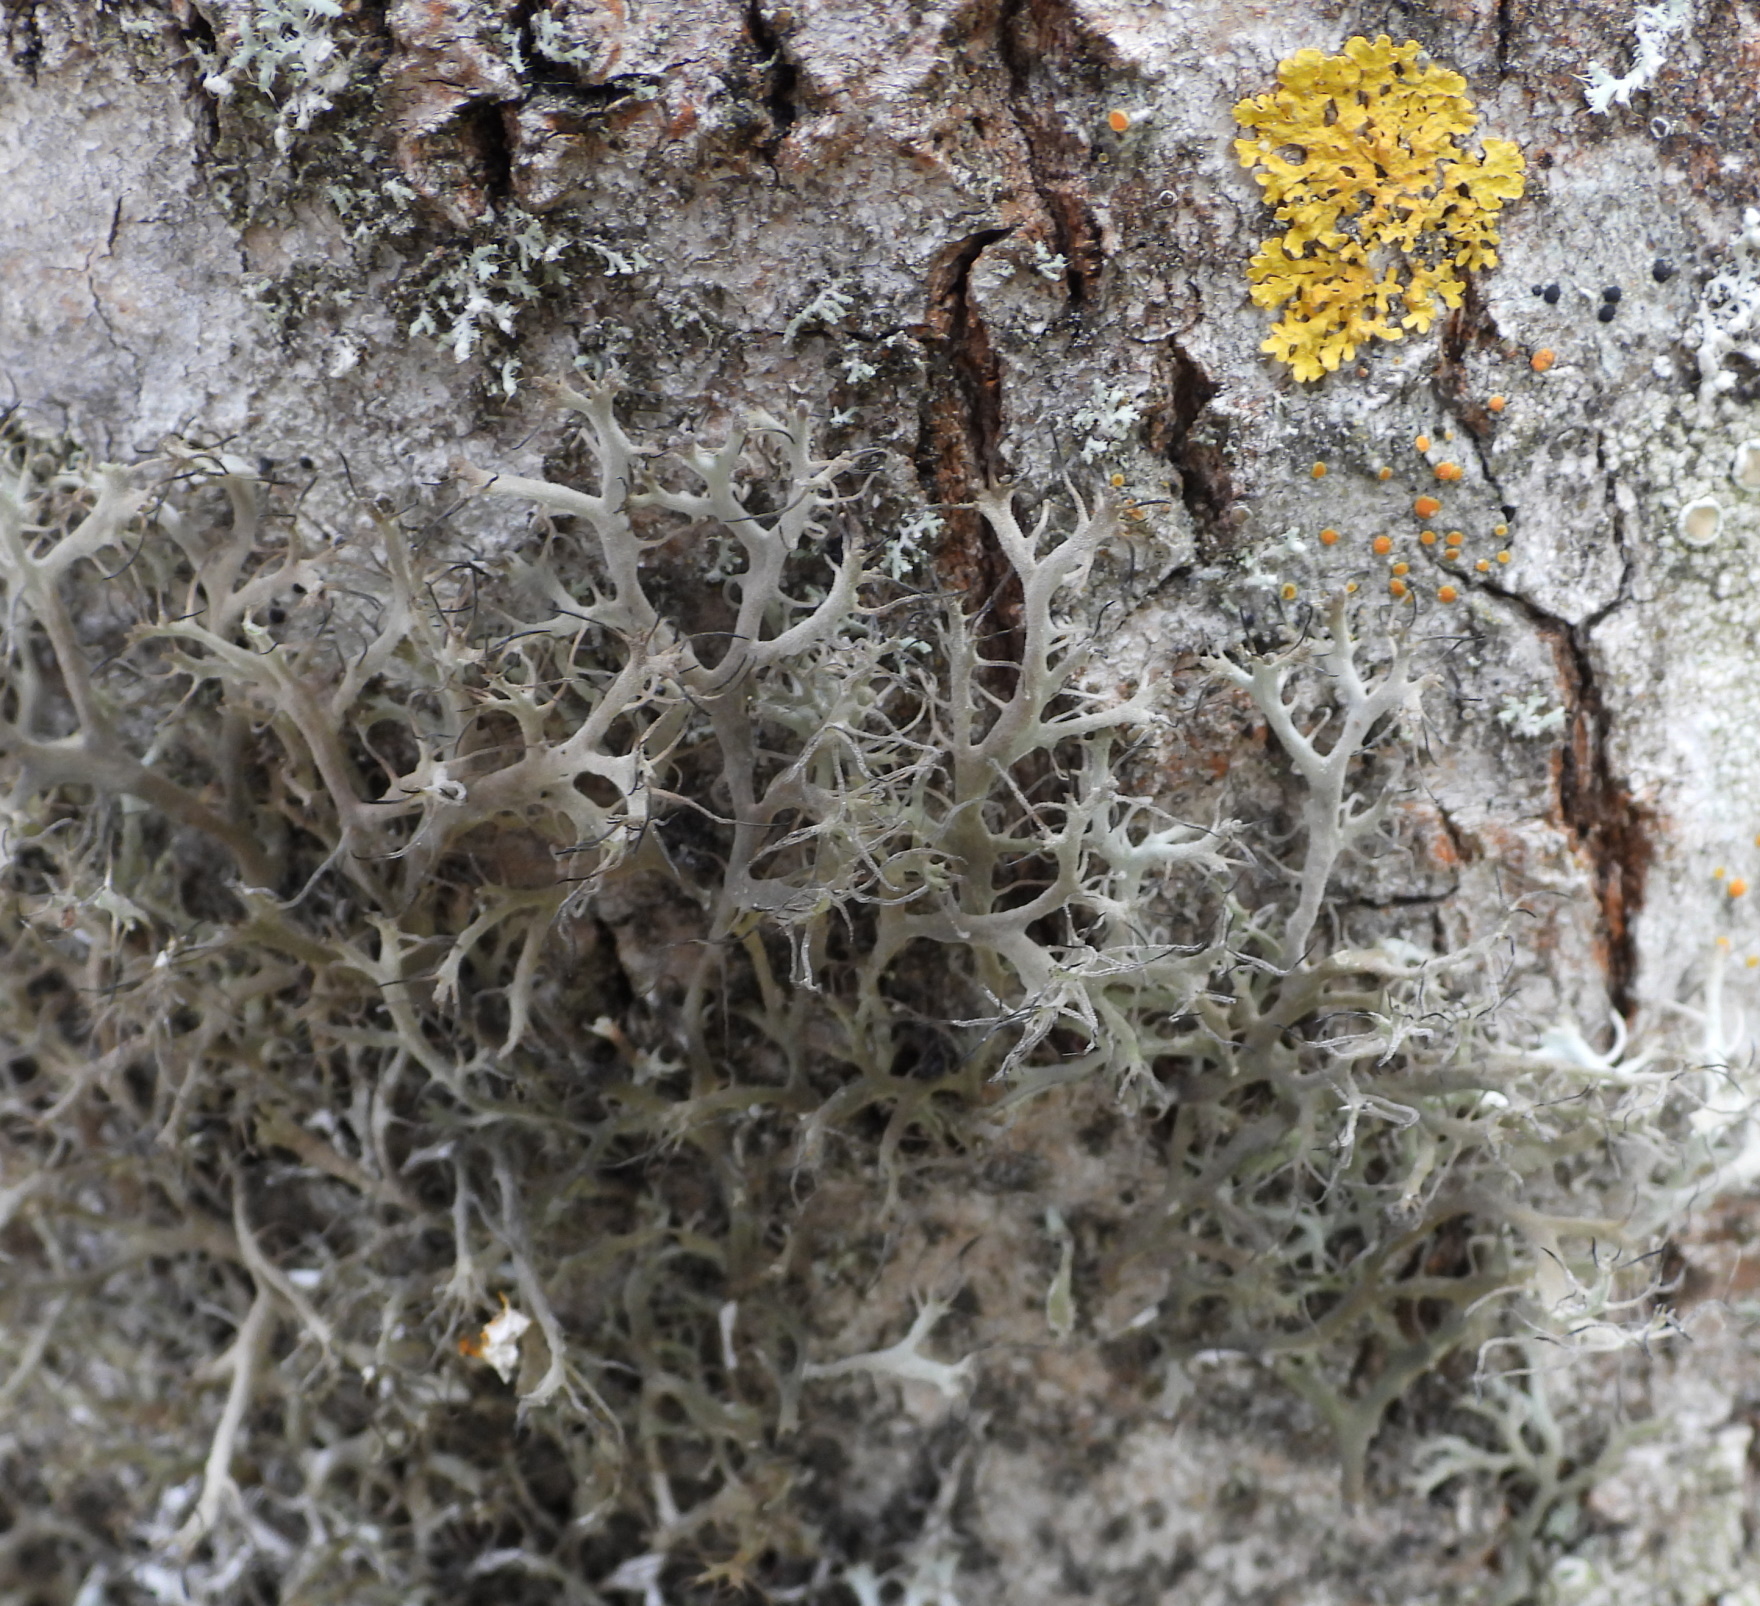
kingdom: Fungi
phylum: Ascomycota
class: Lecanoromycetes
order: Caliciales
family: Physciaceae
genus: Anaptychia
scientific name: Anaptychia ciliaris
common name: Great ciliated lichen
